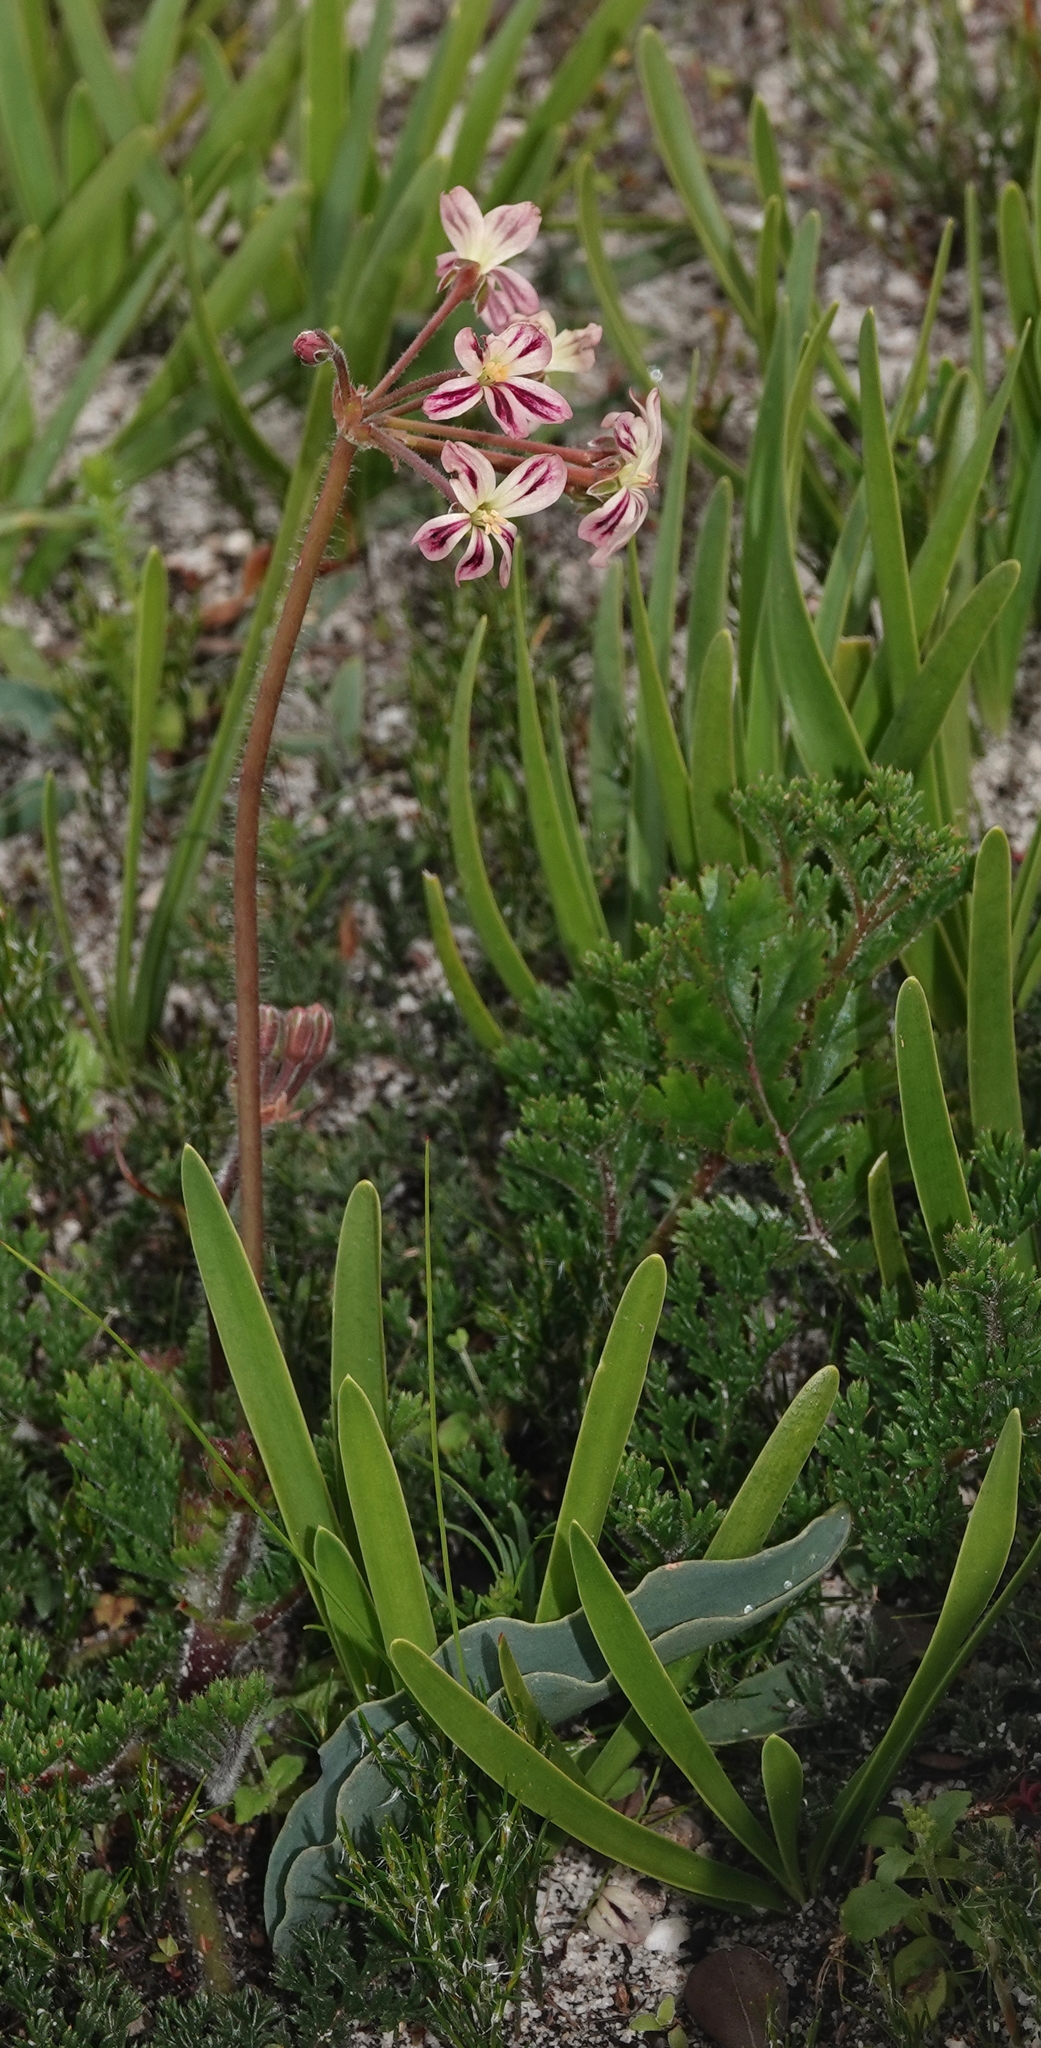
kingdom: Plantae
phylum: Tracheophyta
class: Magnoliopsida
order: Geraniales
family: Geraniaceae
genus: Pelargonium
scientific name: Pelargonium triste
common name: Night-scent pelargonium
